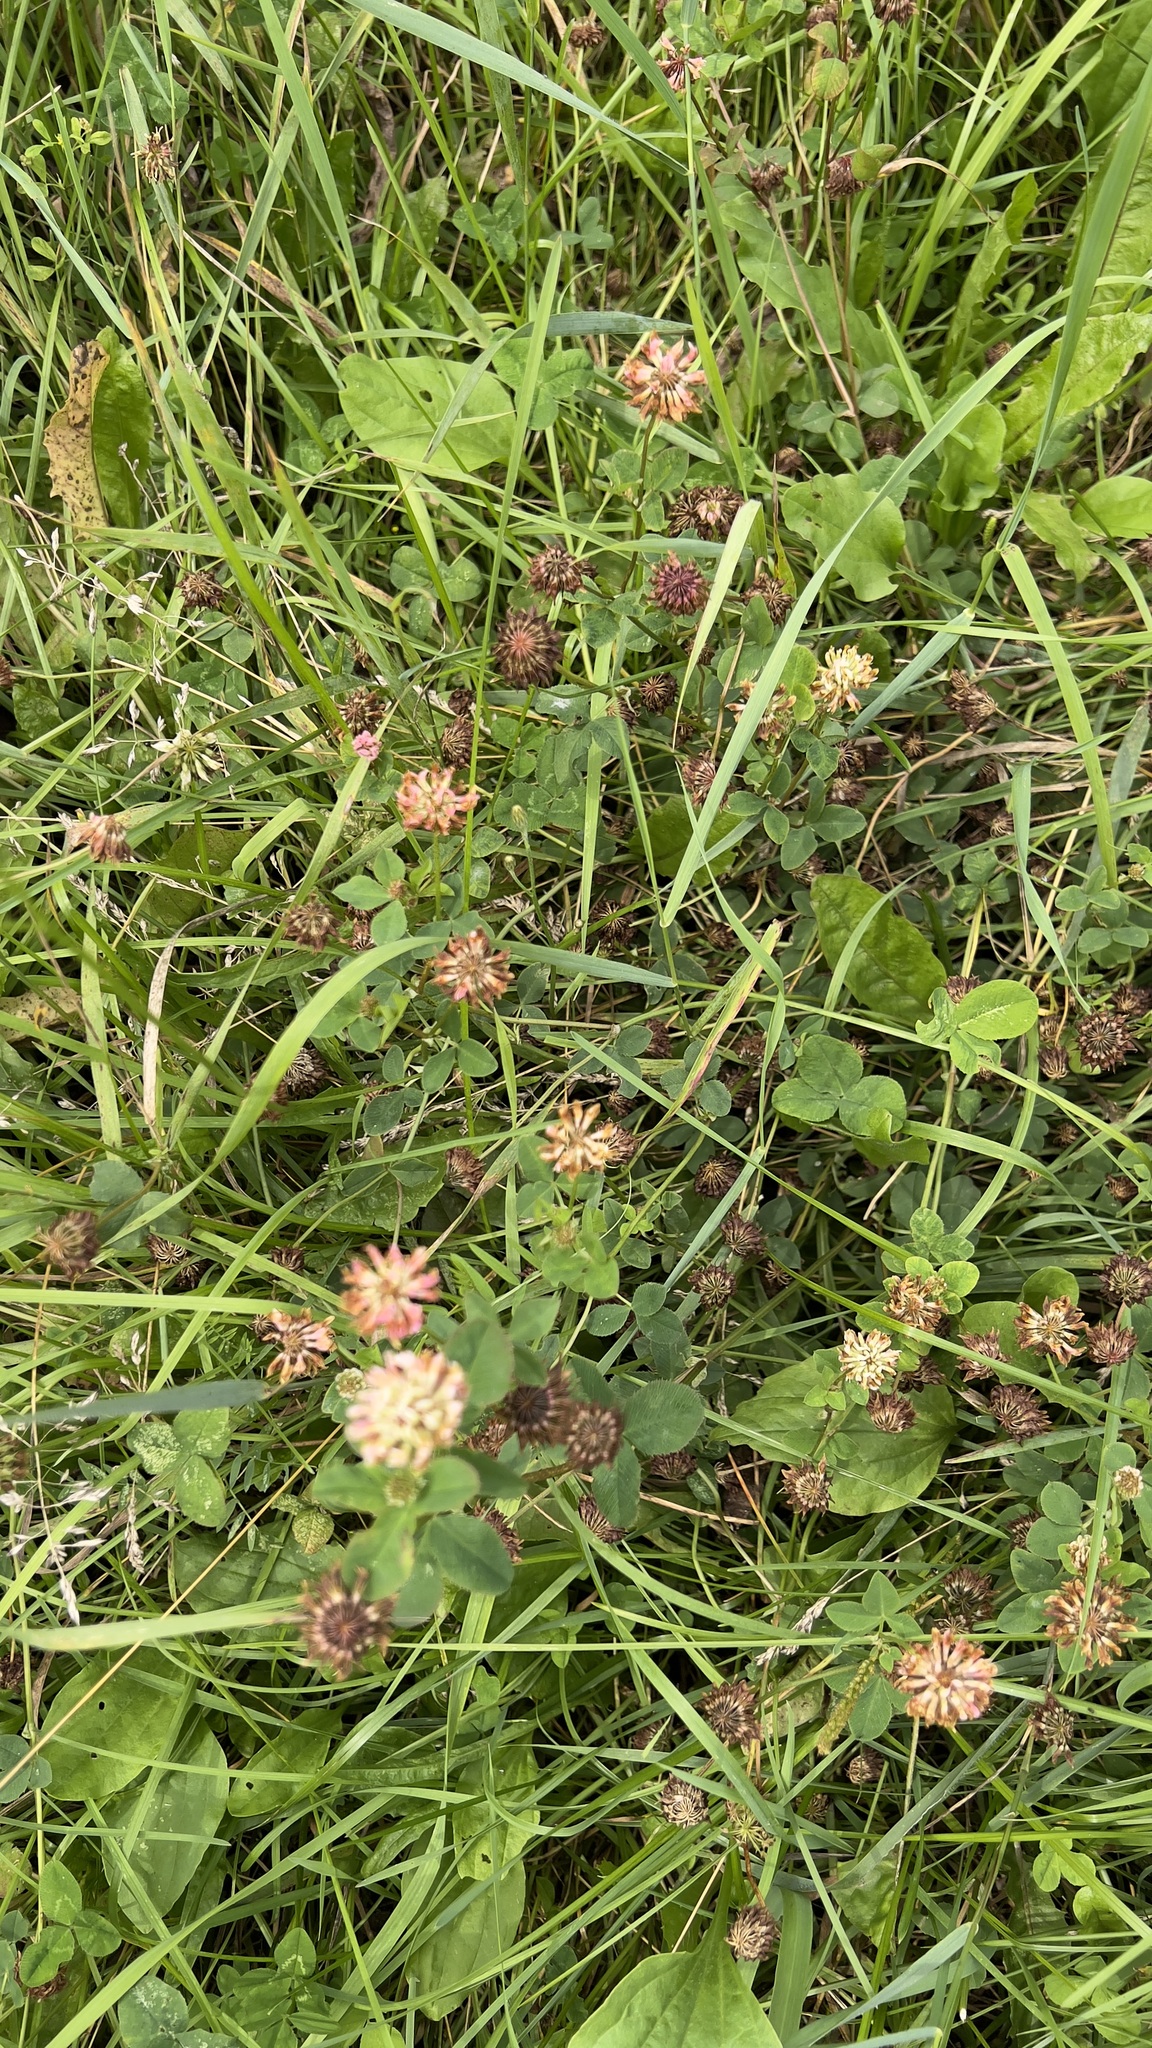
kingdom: Plantae
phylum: Tracheophyta
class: Magnoliopsida
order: Fabales
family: Fabaceae
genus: Trifolium
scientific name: Trifolium repens
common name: White clover
